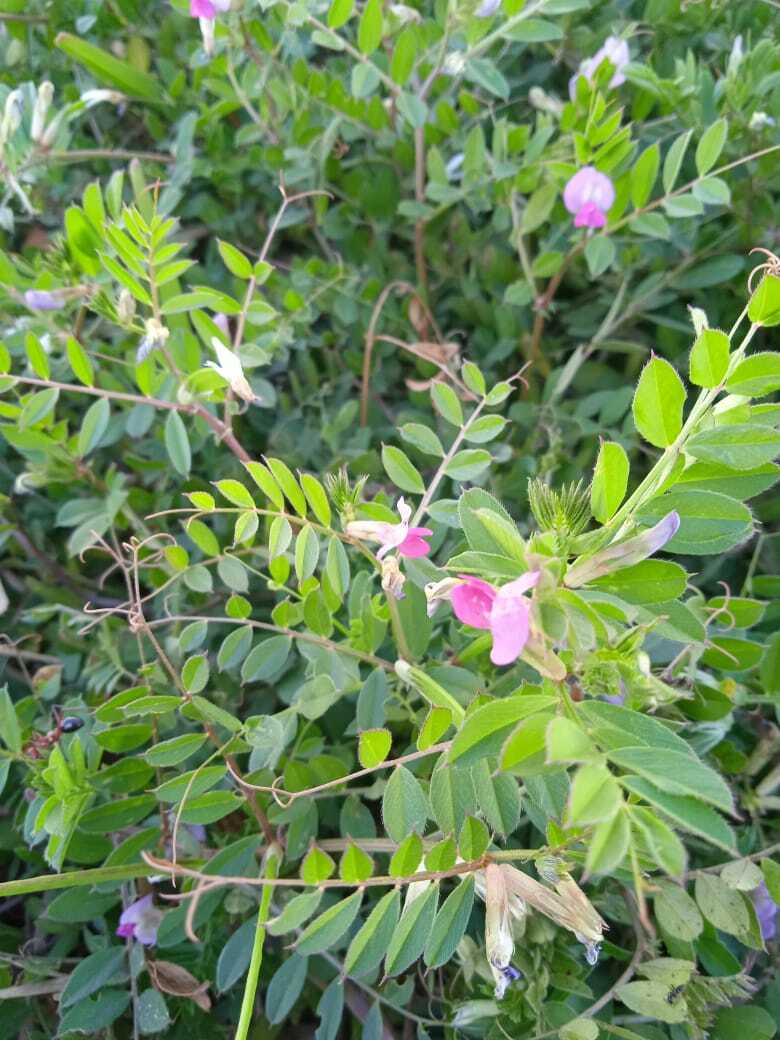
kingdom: Plantae
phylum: Tracheophyta
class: Magnoliopsida
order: Fabales
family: Fabaceae
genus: Vicia
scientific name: Vicia sativa
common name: Garden vetch
